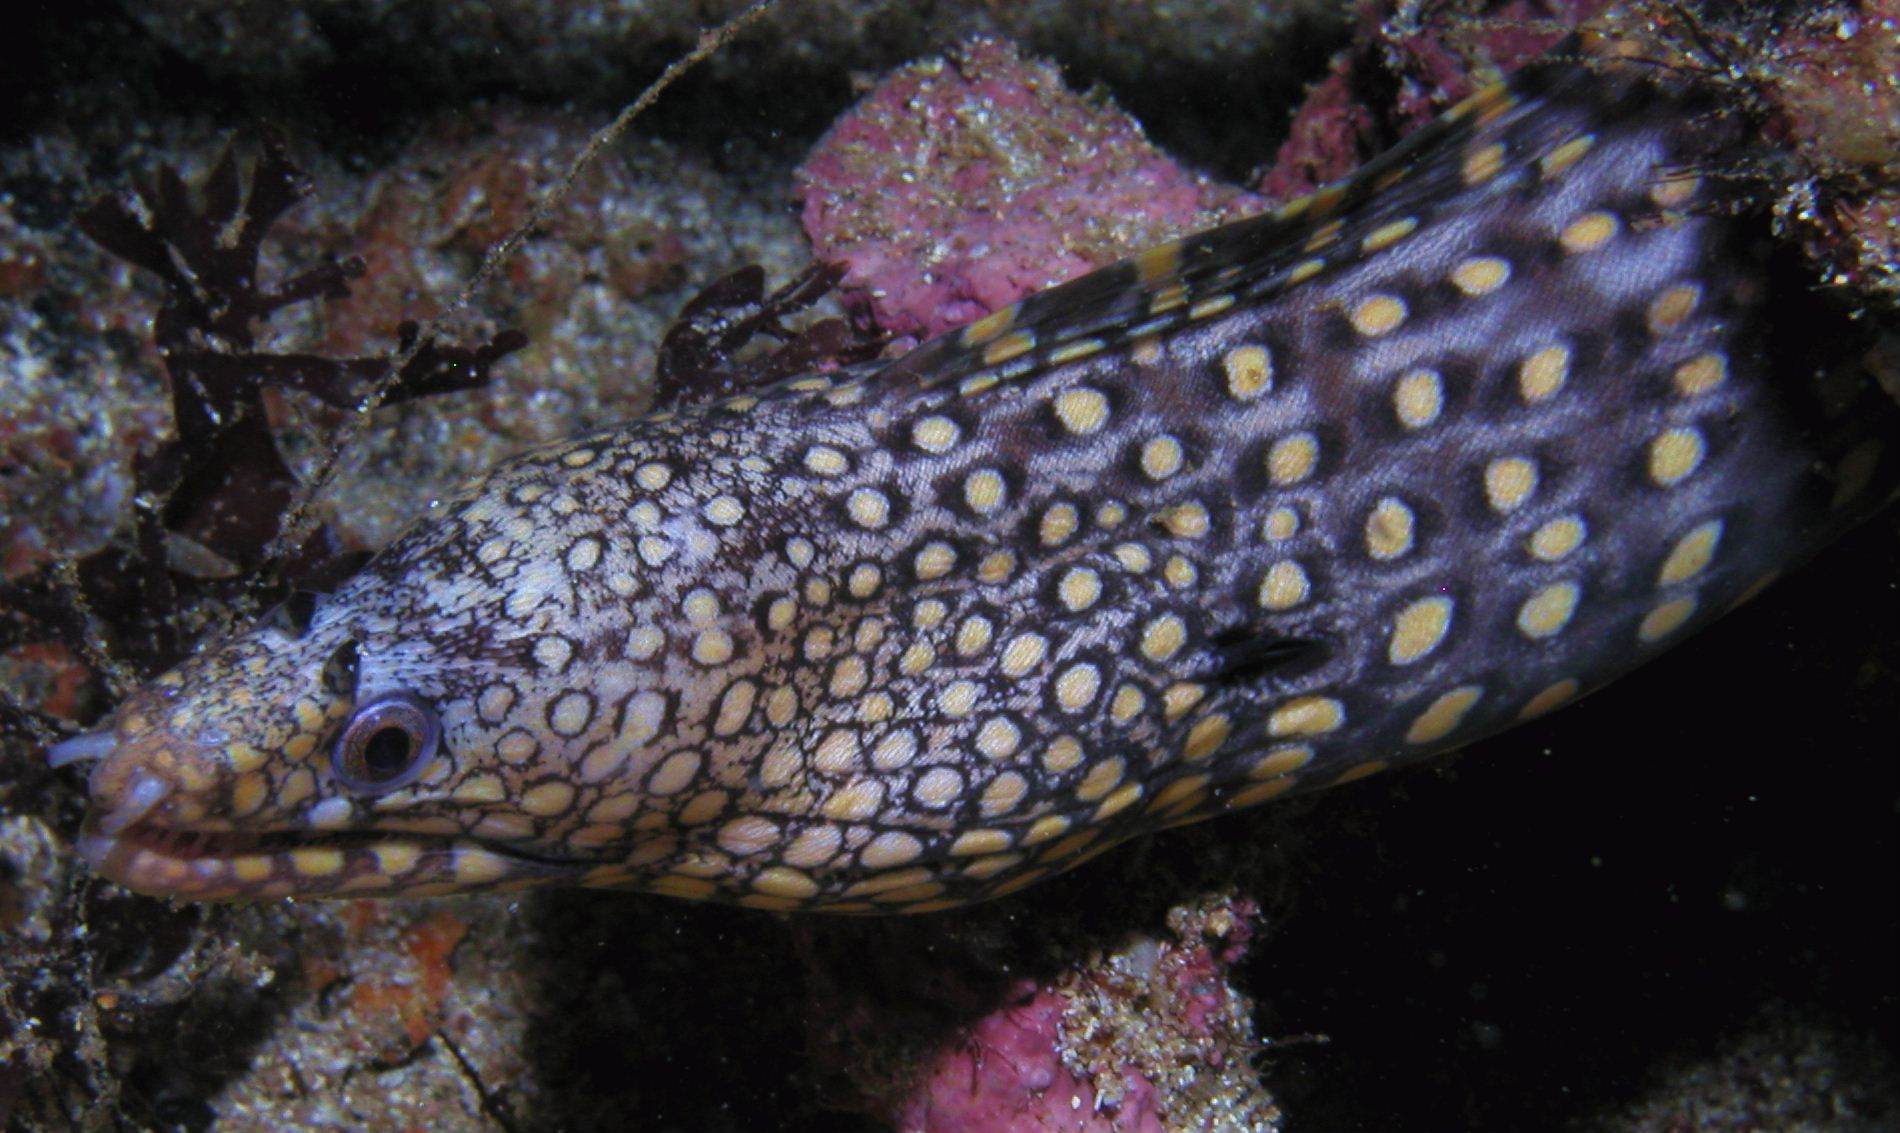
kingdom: Animalia
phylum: Chordata
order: Anguilliformes
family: Muraenidae
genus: Muraena
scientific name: Muraena lentiginosa
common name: Jewel moray
